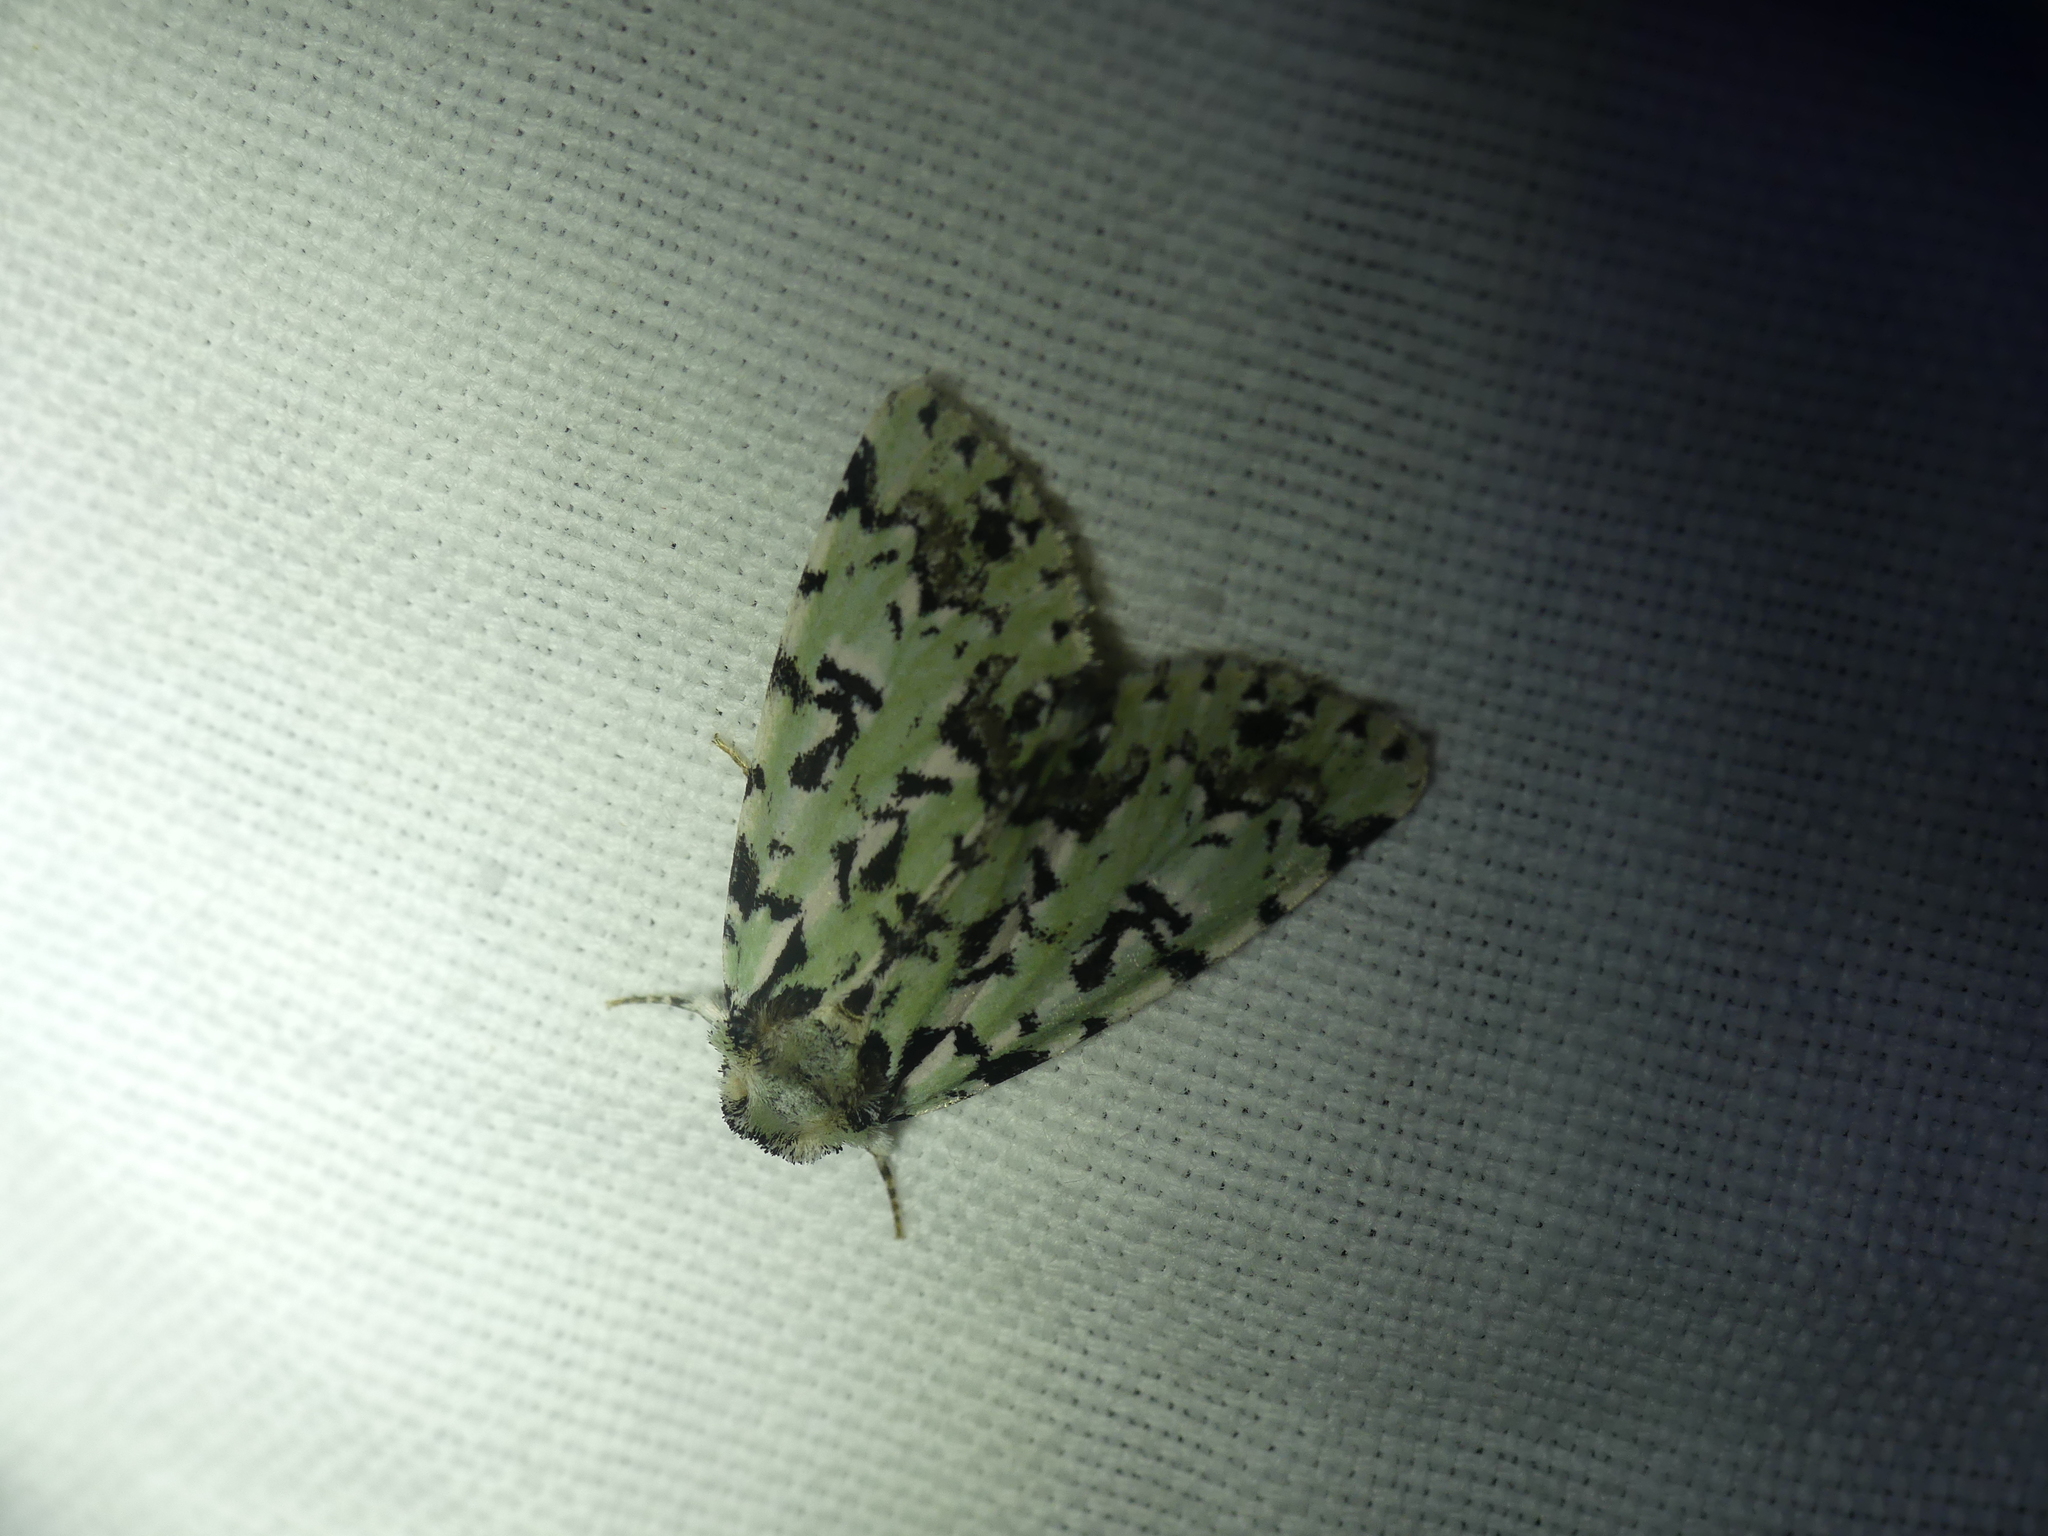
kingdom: Animalia
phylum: Arthropoda
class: Insecta
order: Lepidoptera
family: Noctuidae
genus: Moma
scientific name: Moma alpium
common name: Scarce merveille du jour
